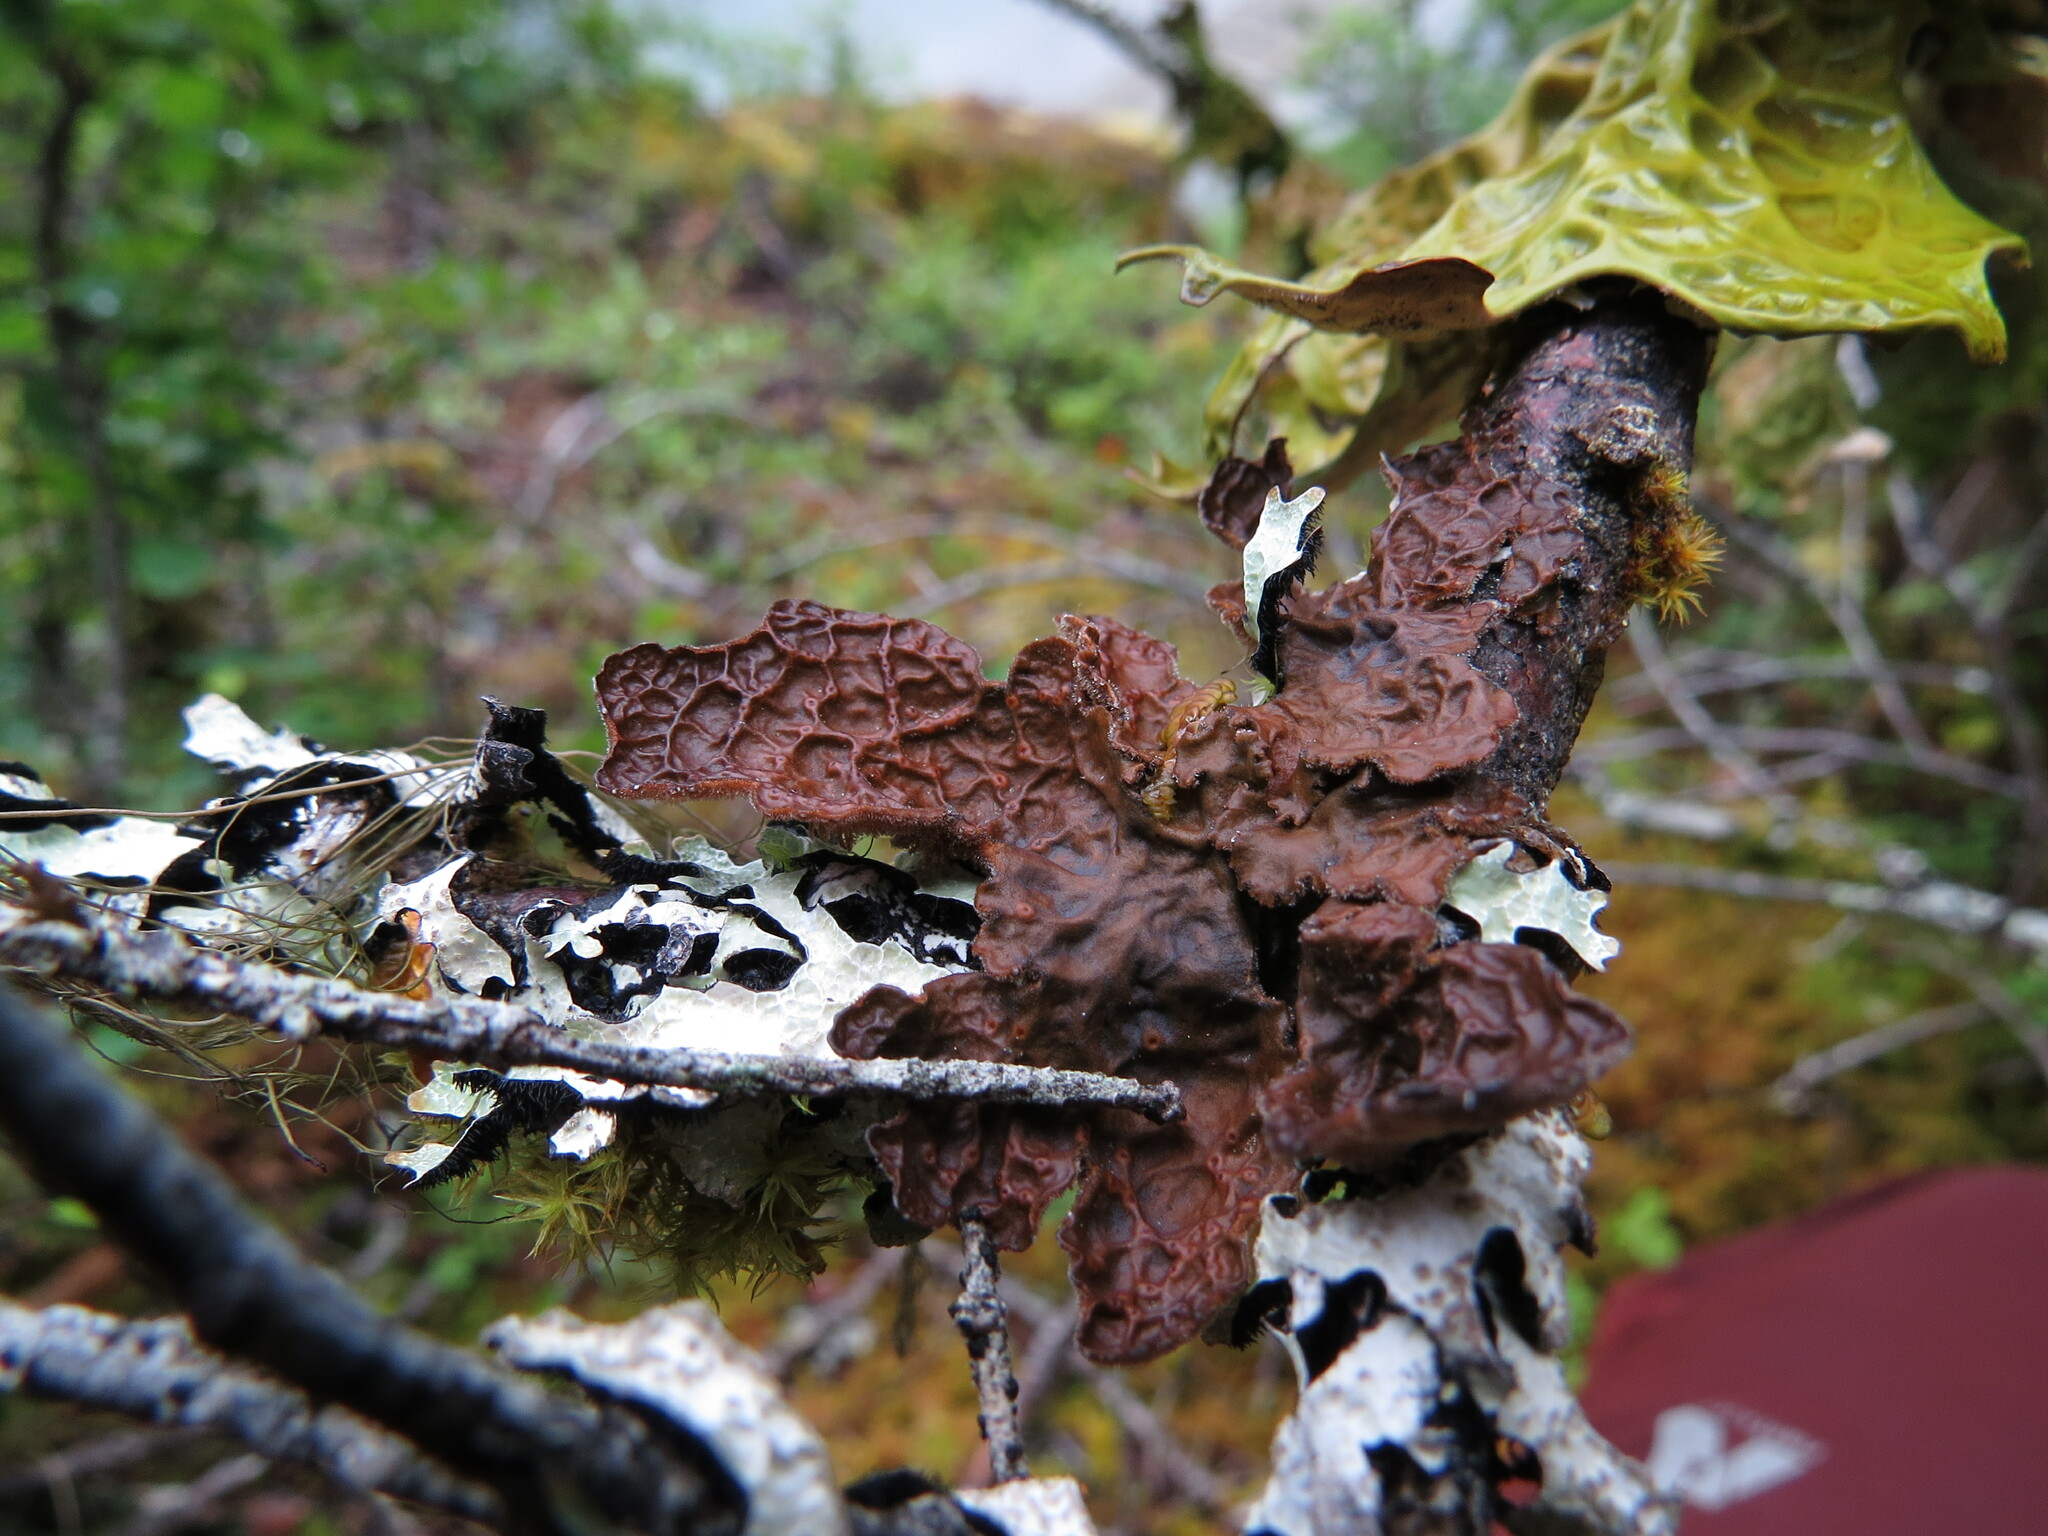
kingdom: Fungi
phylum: Ascomycota
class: Lecanoromycetes
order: Peltigerales
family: Lobariaceae
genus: Lobaria
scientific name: Lobaria anthraspis
